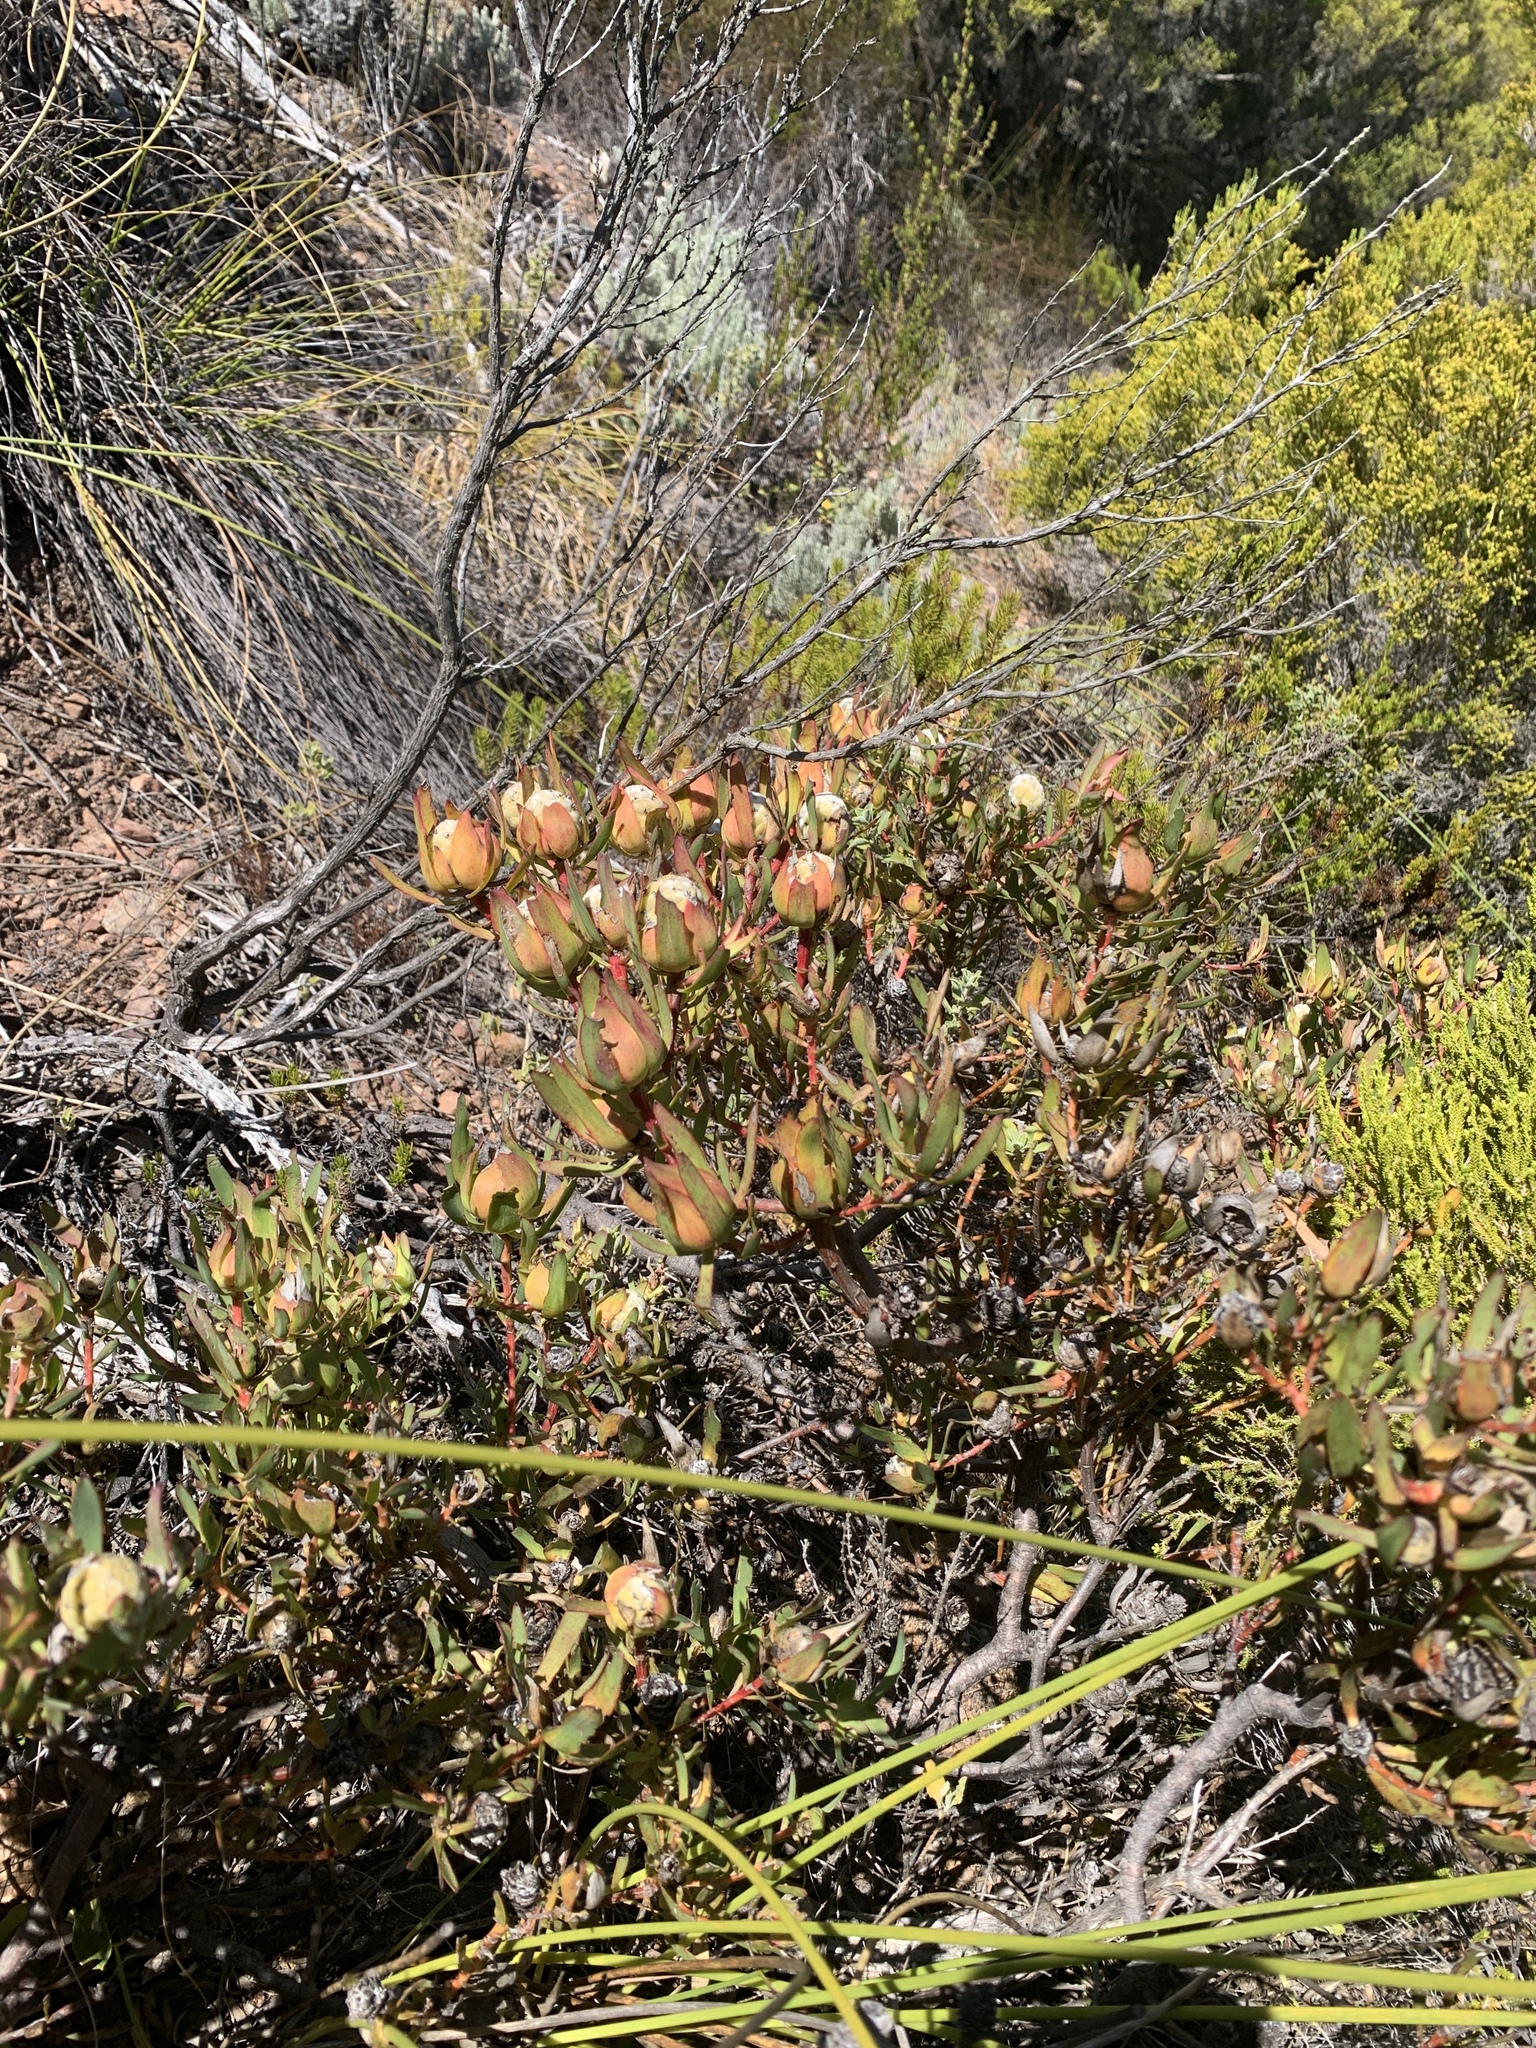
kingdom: Plantae
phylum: Tracheophyta
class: Magnoliopsida
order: Proteales
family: Proteaceae
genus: Leucadendron
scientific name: Leucadendron salignum
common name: Common sunshine conebush
